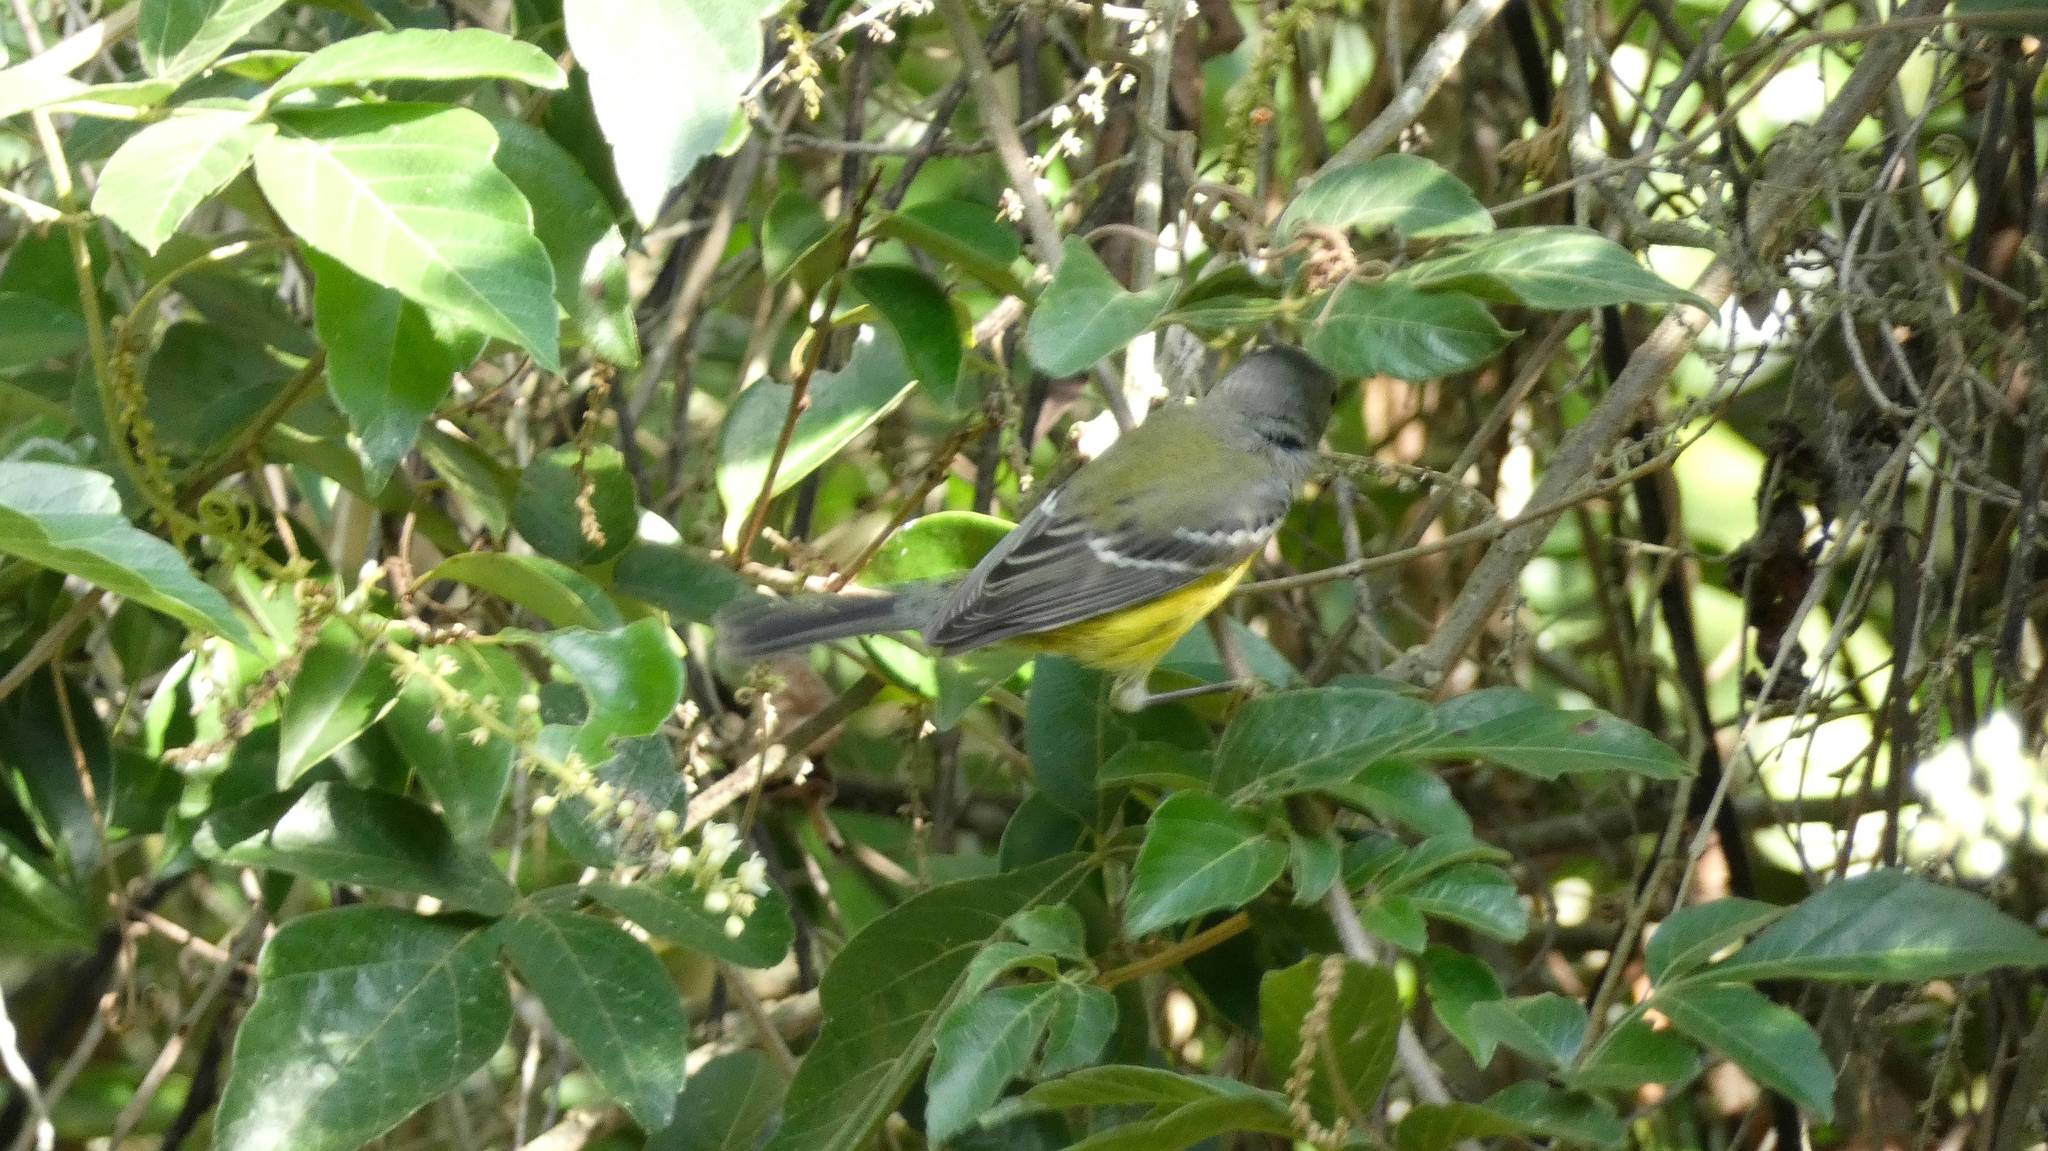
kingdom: Animalia
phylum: Chordata
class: Aves
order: Passeriformes
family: Parulidae
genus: Setophaga
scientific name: Setophaga magnolia
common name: Magnolia warbler
